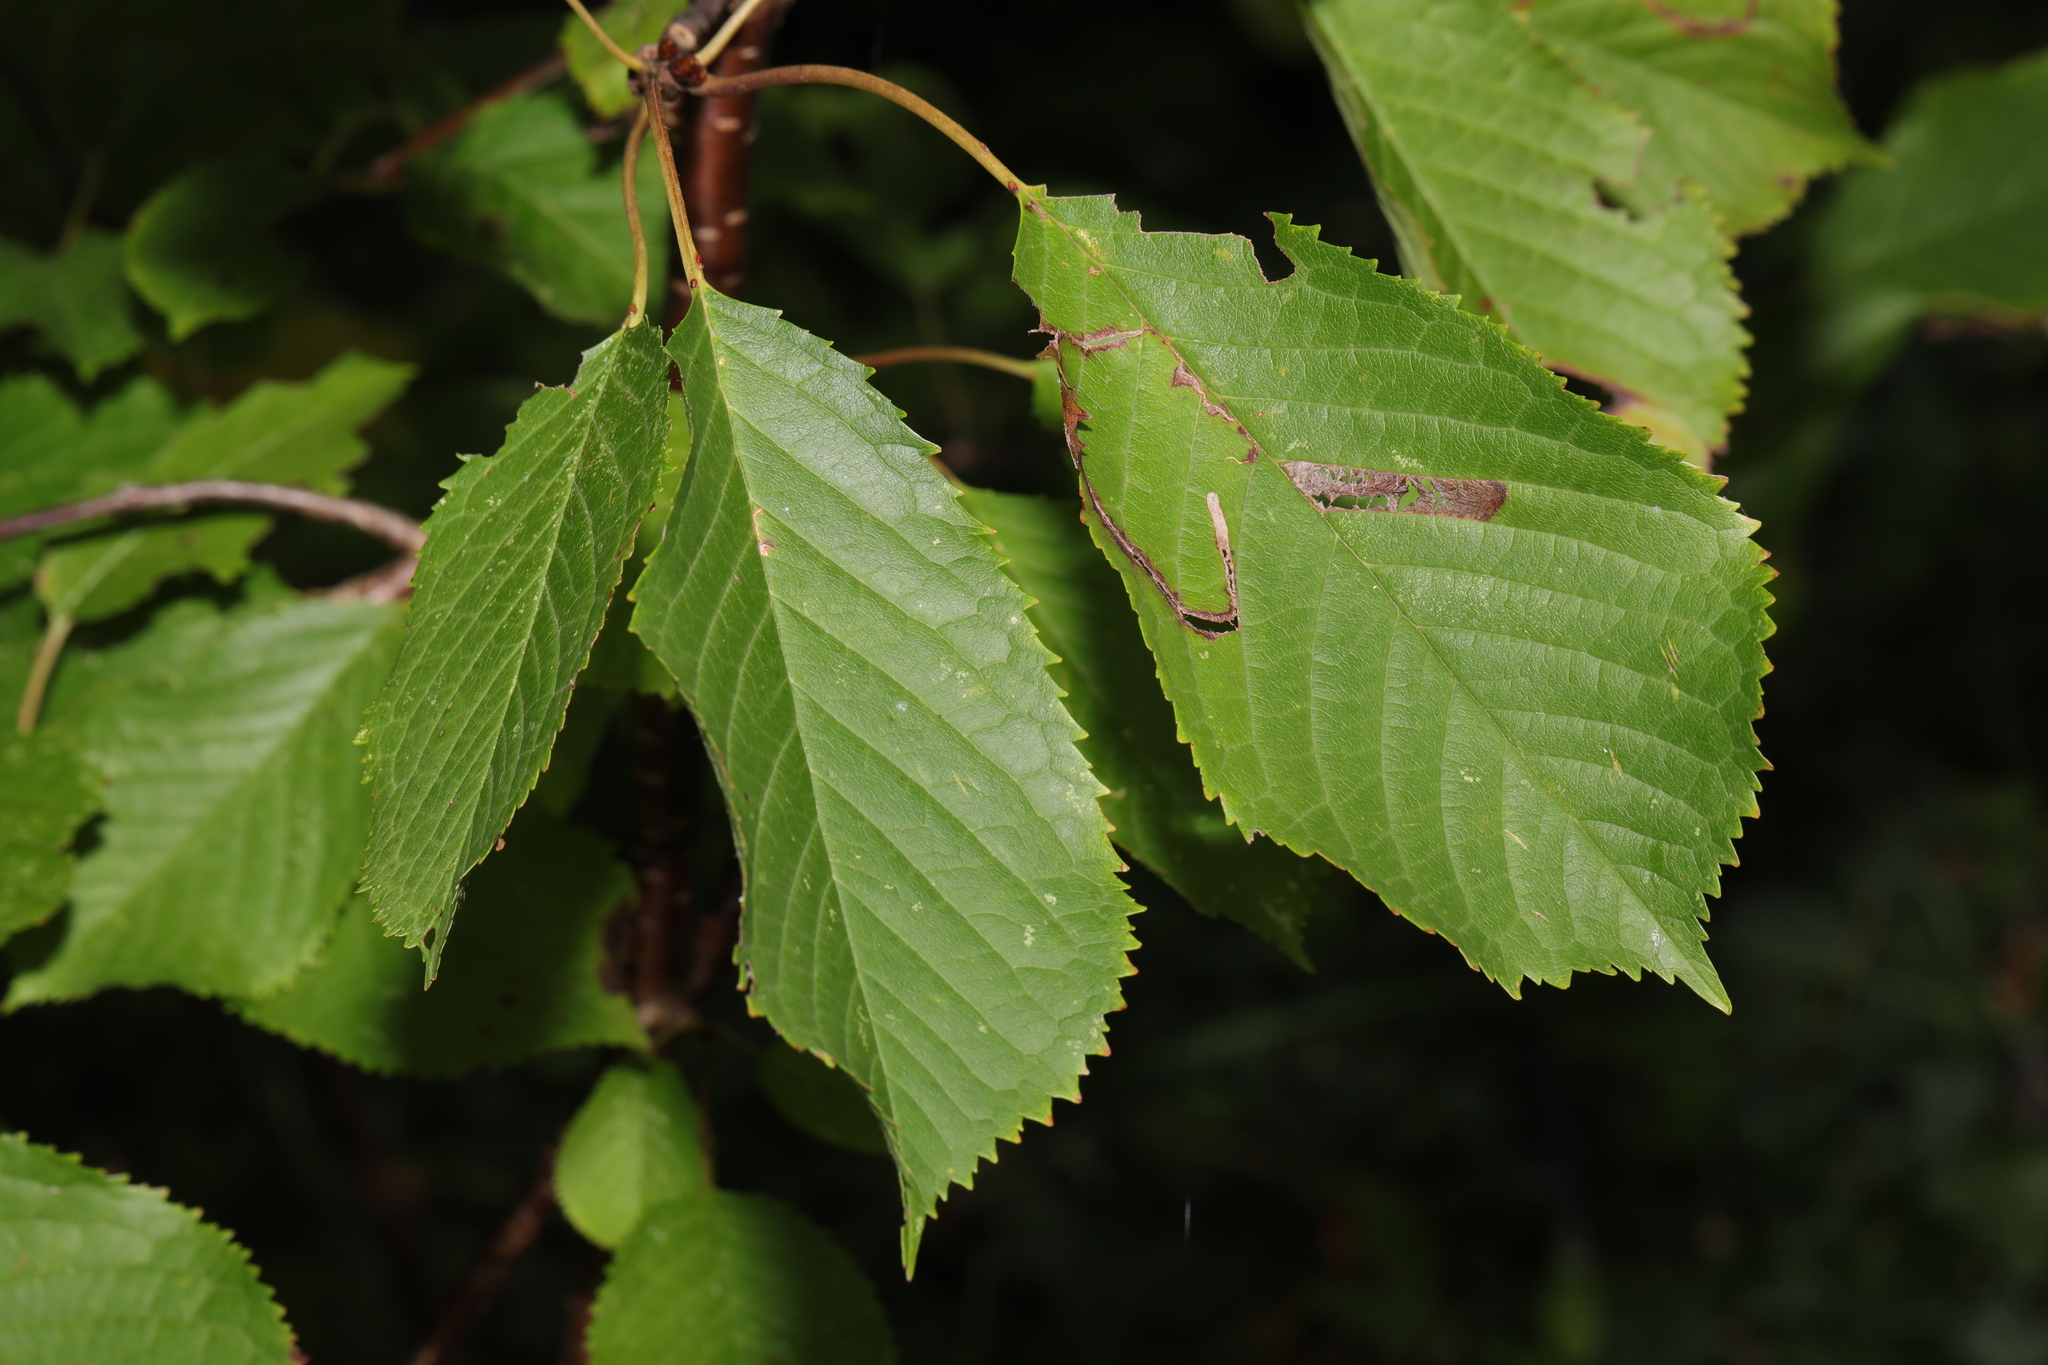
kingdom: Animalia
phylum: Arthropoda
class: Insecta
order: Lepidoptera
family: Lyonetiidae
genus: Lyonetia
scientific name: Lyonetia clerkella
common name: Apple leaf miner
